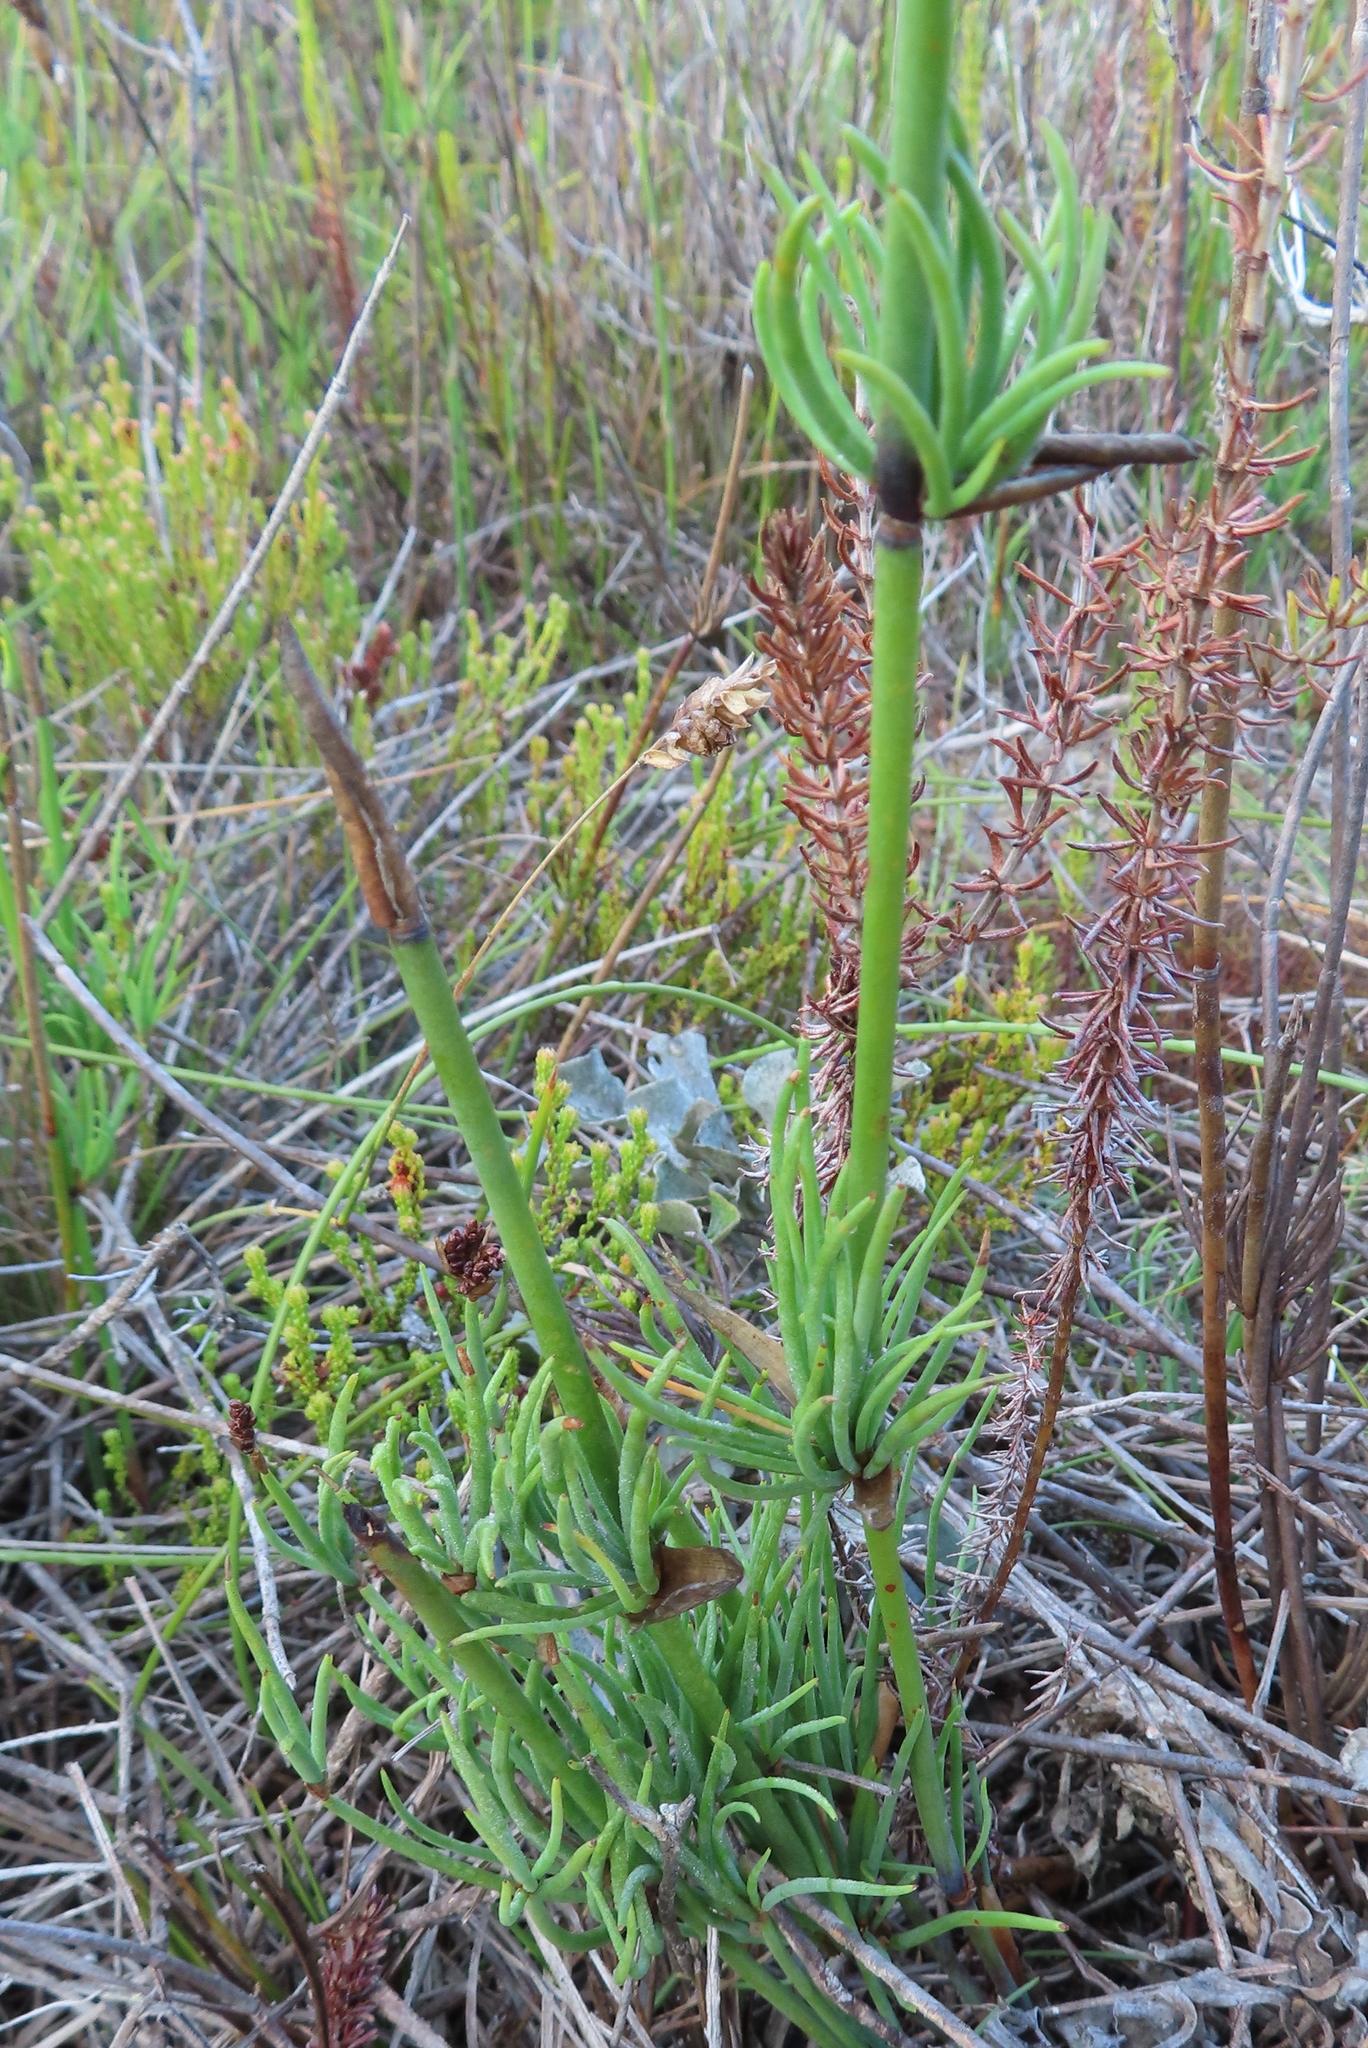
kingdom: Plantae
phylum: Tracheophyta
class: Liliopsida
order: Poales
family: Restionaceae
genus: Elegia
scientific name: Elegia extensa
